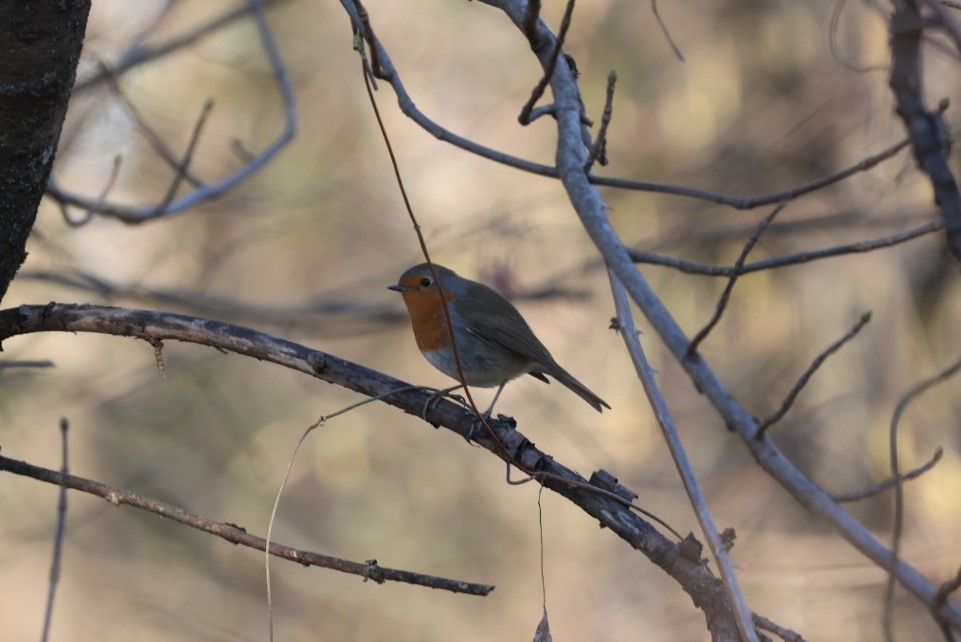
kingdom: Animalia
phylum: Chordata
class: Aves
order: Passeriformes
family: Muscicapidae
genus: Erithacus
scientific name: Erithacus rubecula
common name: European robin
